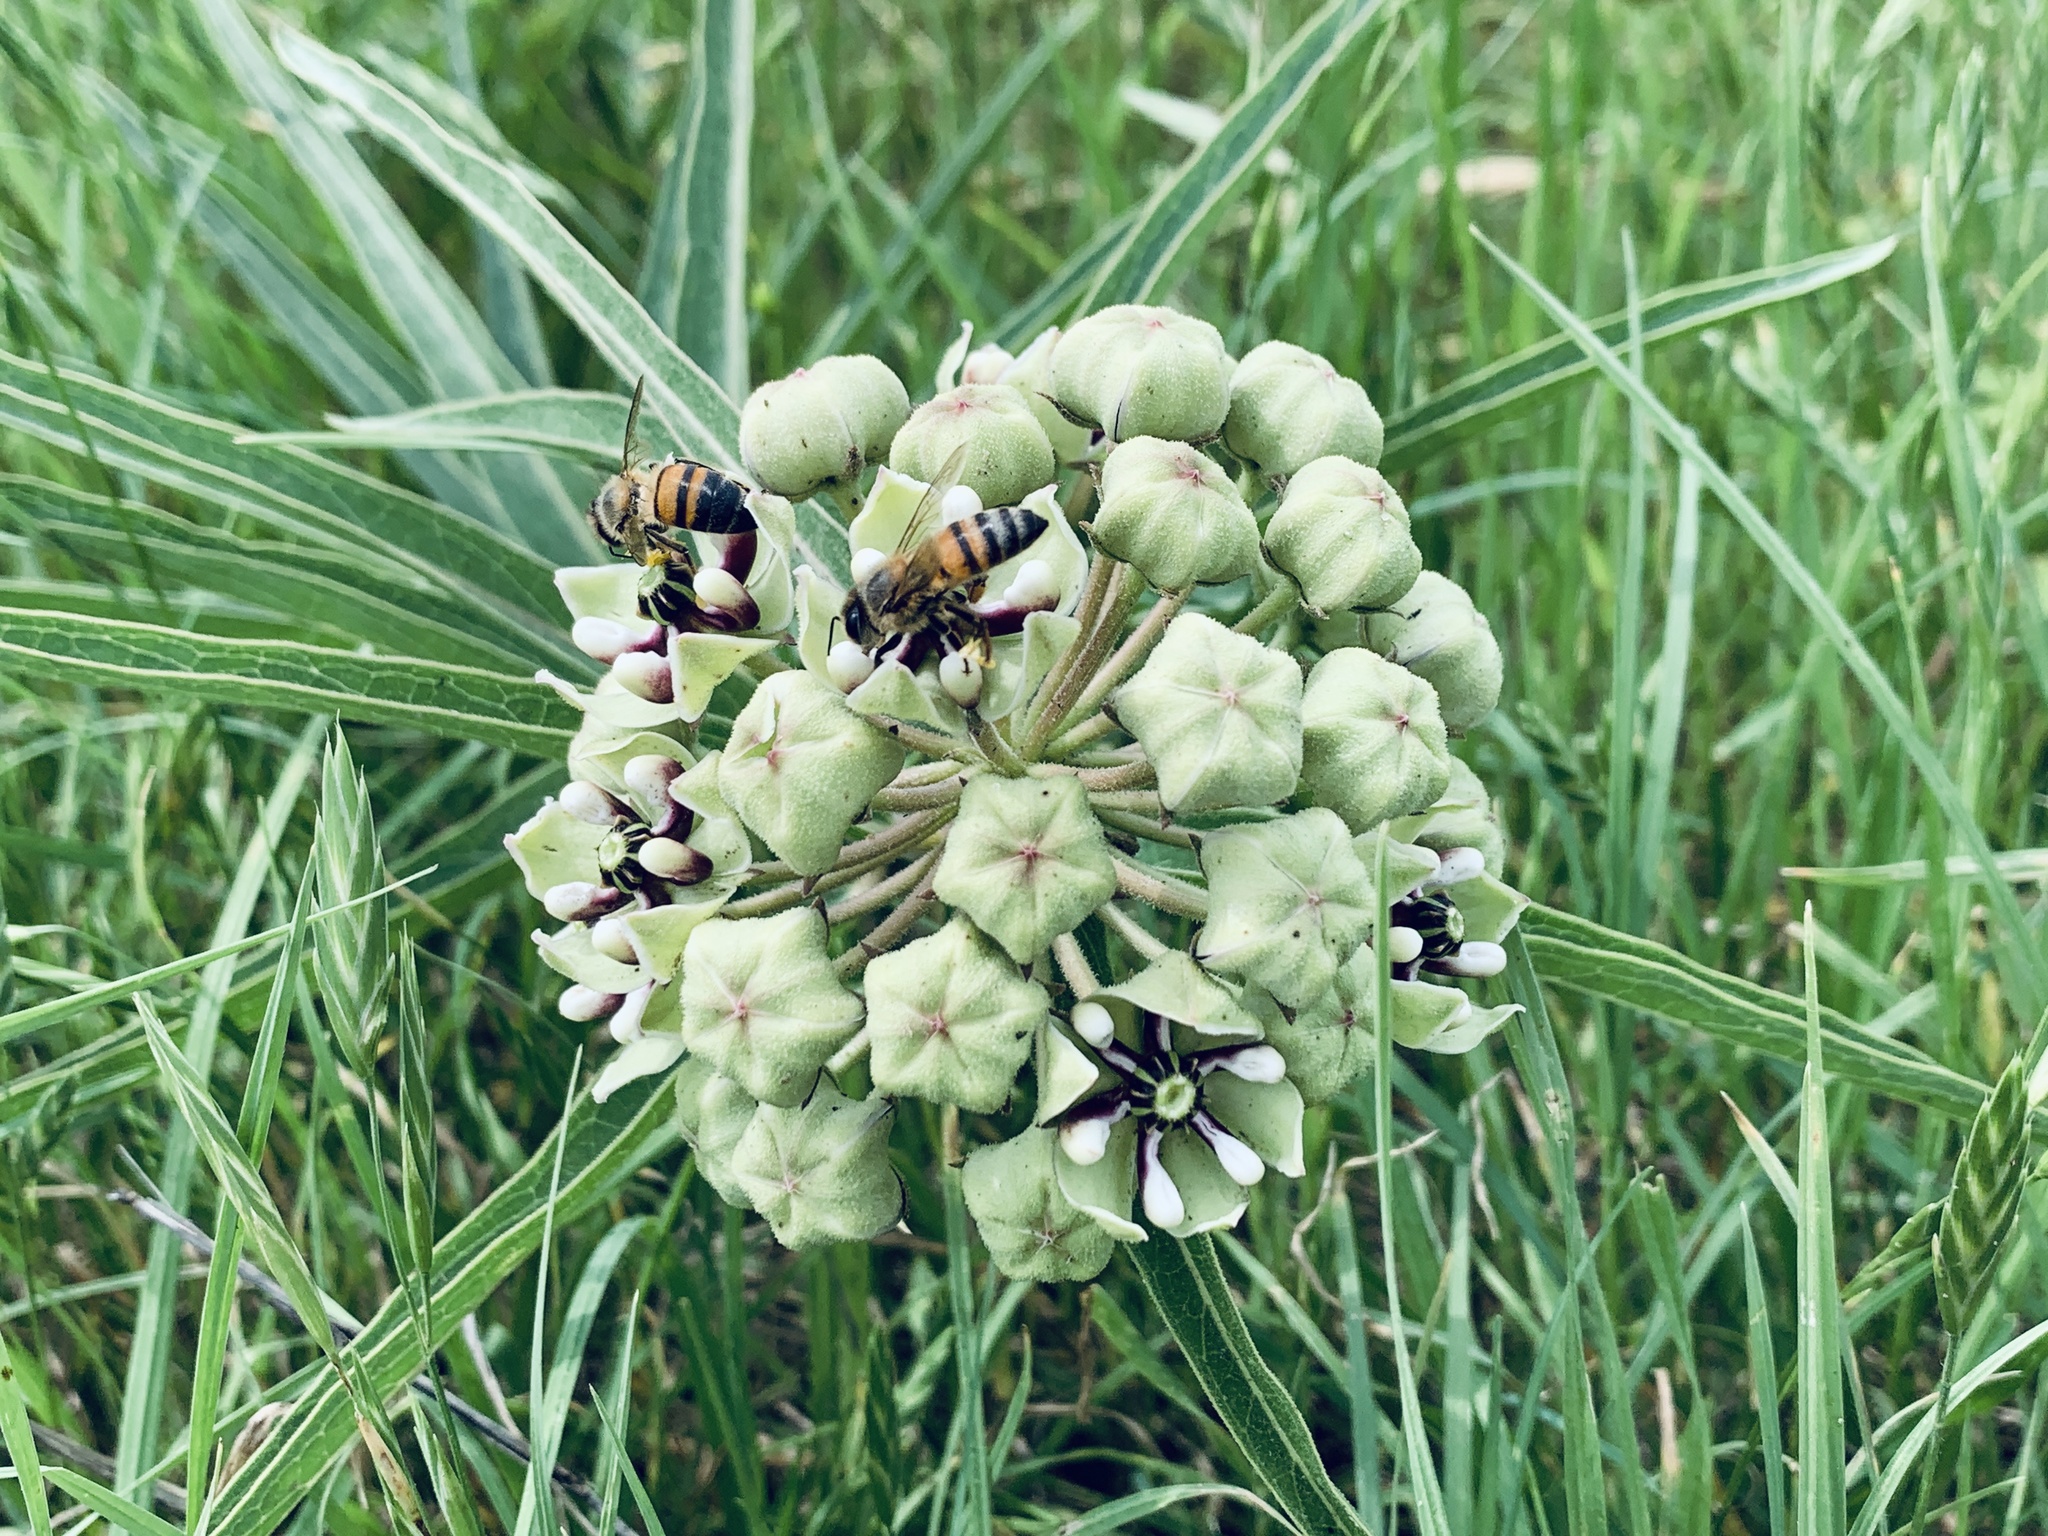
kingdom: Plantae
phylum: Tracheophyta
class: Magnoliopsida
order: Gentianales
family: Apocynaceae
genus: Asclepias
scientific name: Asclepias asperula
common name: Antelope horns
